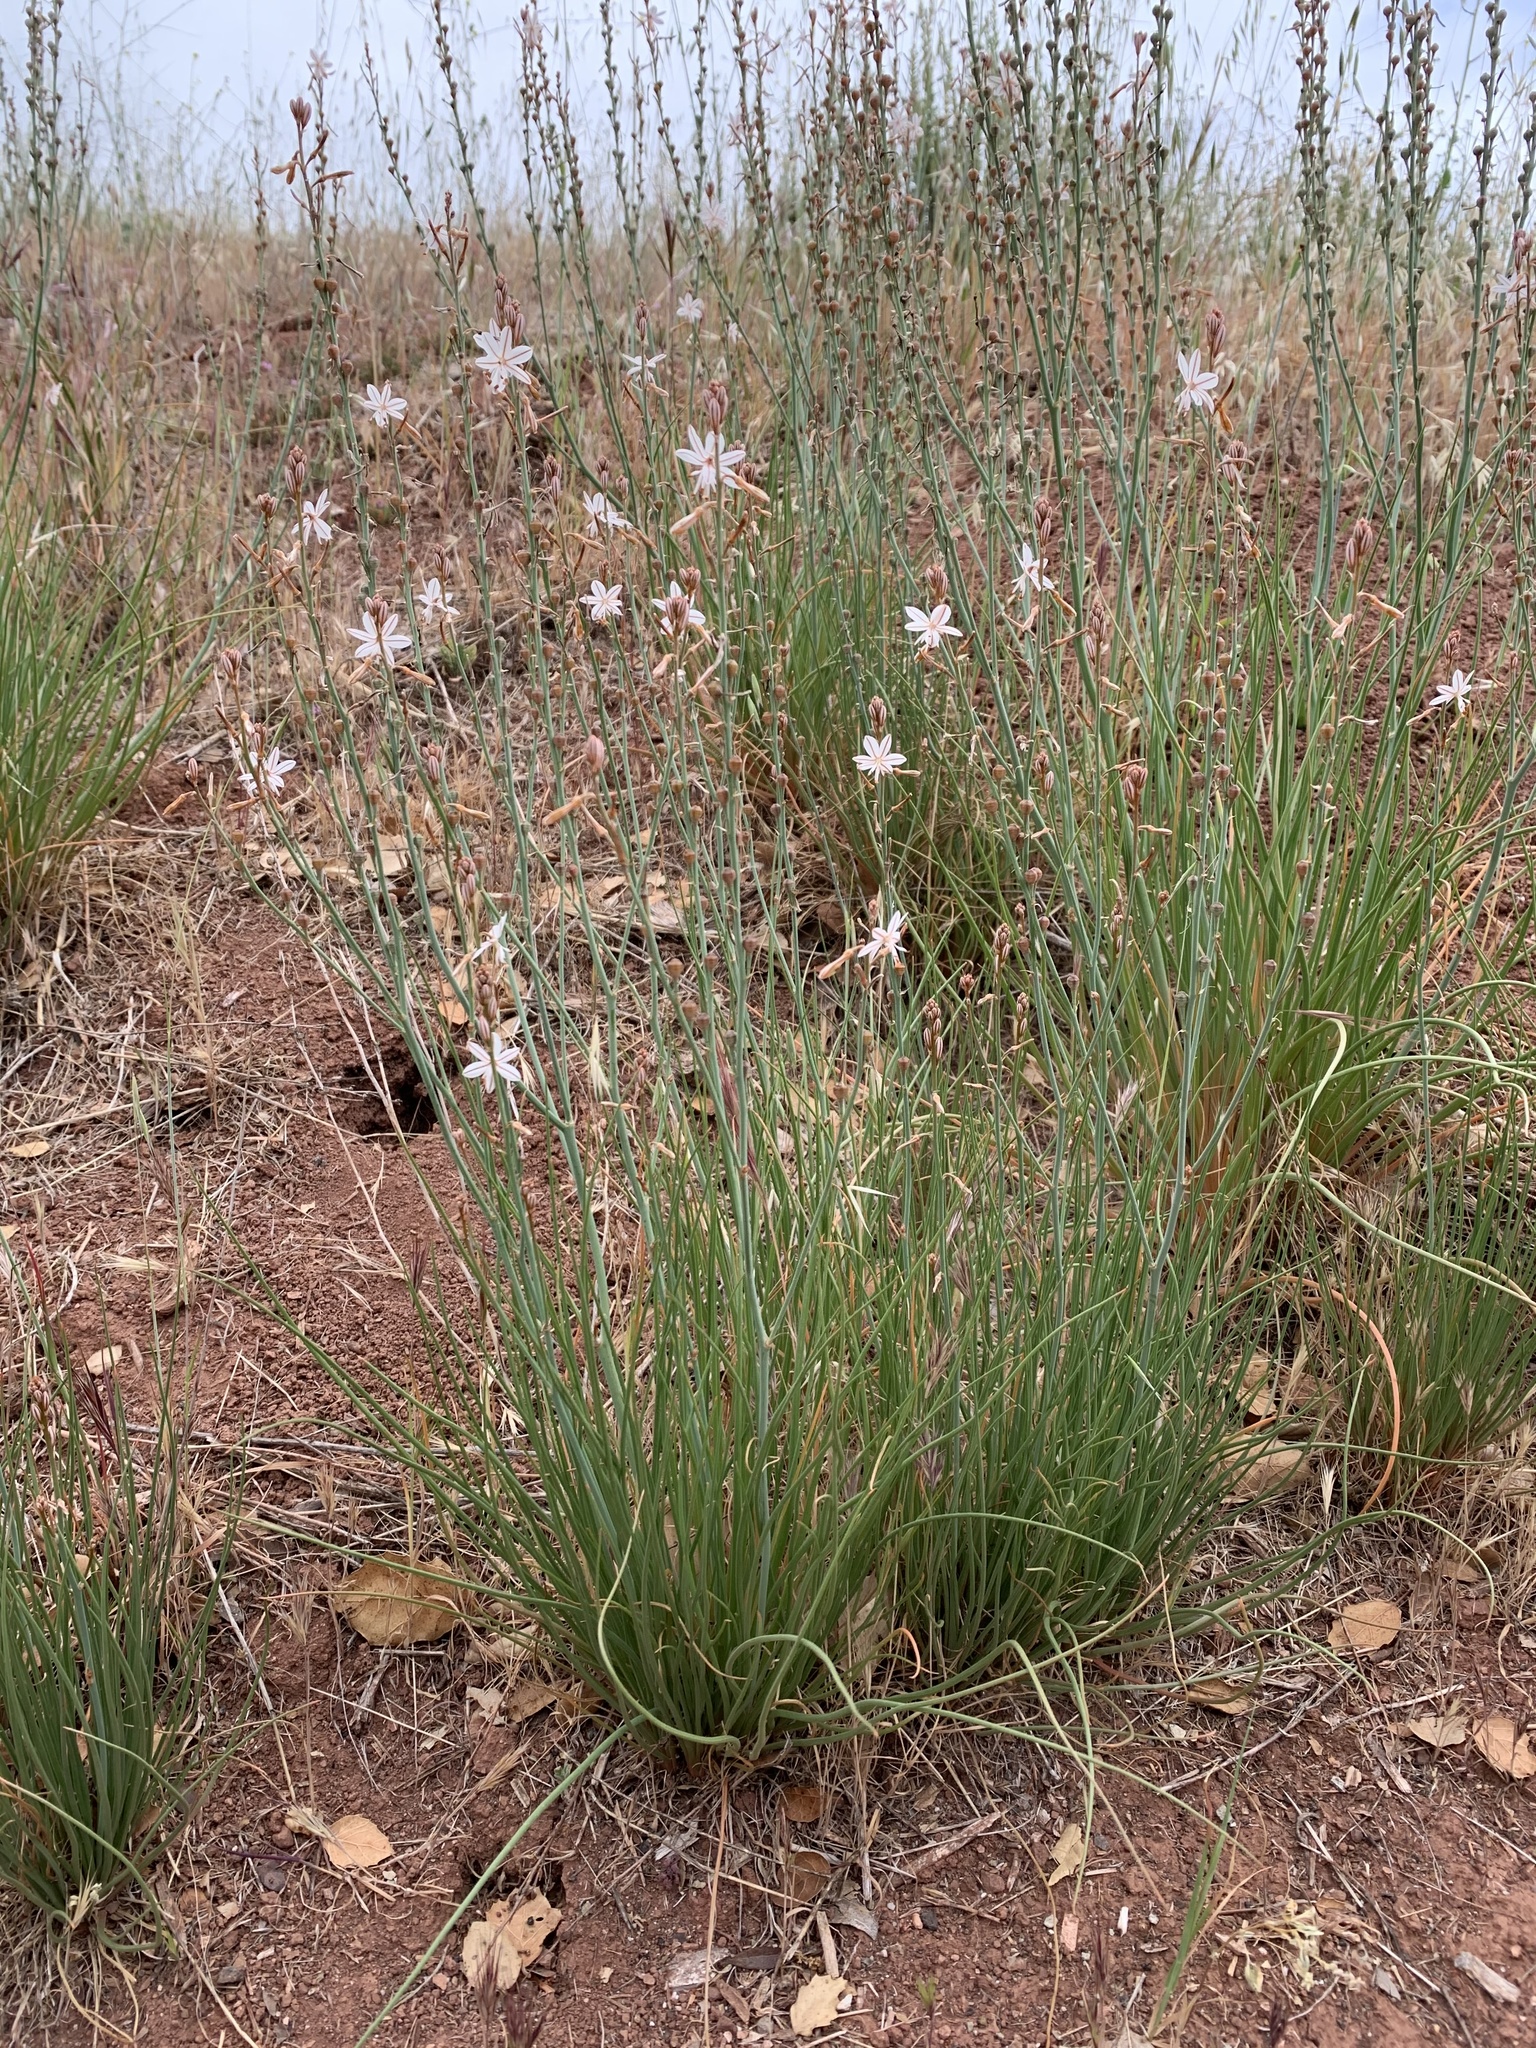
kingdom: Plantae
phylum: Tracheophyta
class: Liliopsida
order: Asparagales
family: Asphodelaceae
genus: Asphodelus
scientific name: Asphodelus fistulosus
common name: Onionweed
